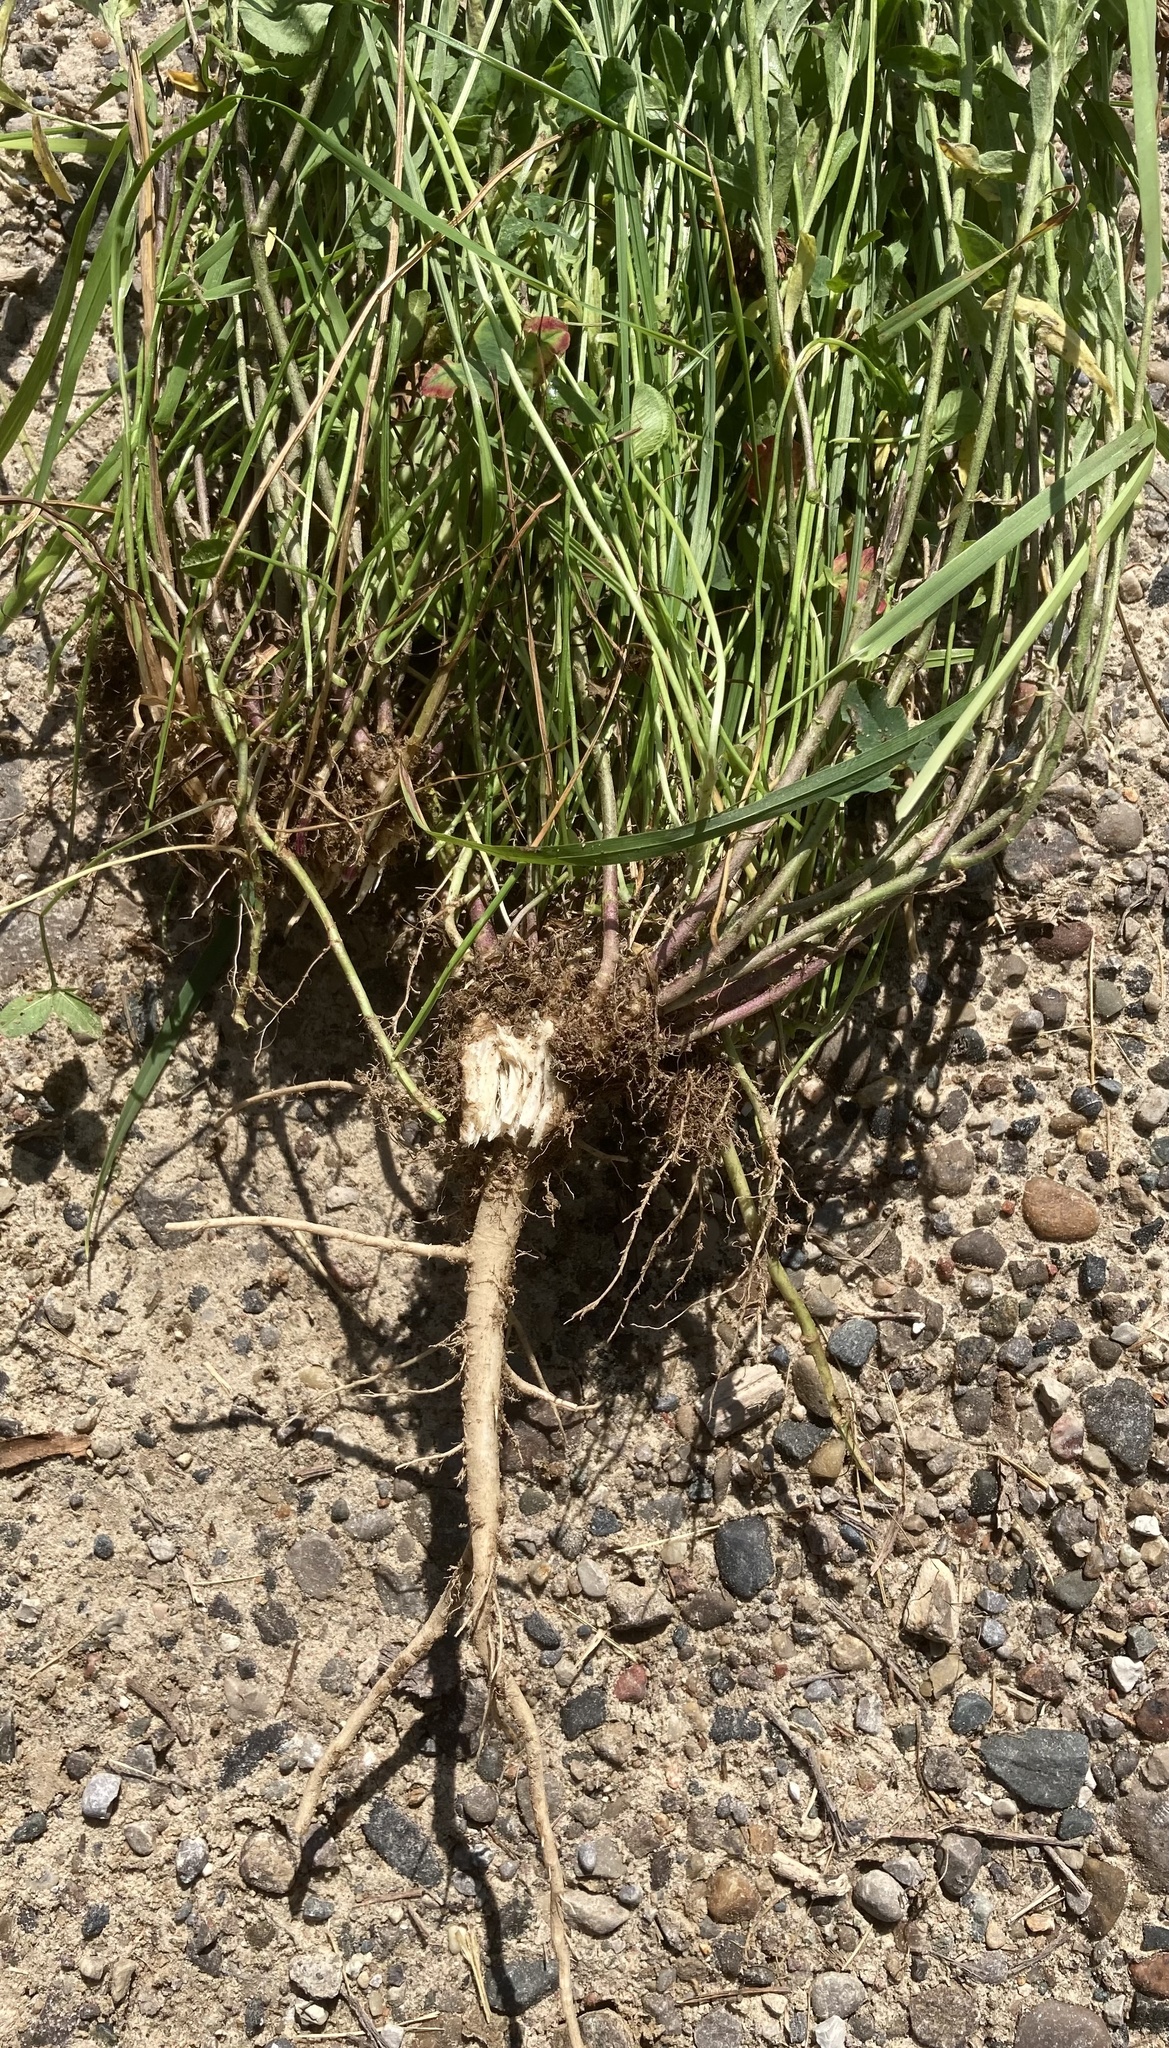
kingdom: Plantae
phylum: Tracheophyta
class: Magnoliopsida
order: Brassicales
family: Brassicaceae
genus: Berteroa
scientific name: Berteroa incana
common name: Hoary alison
